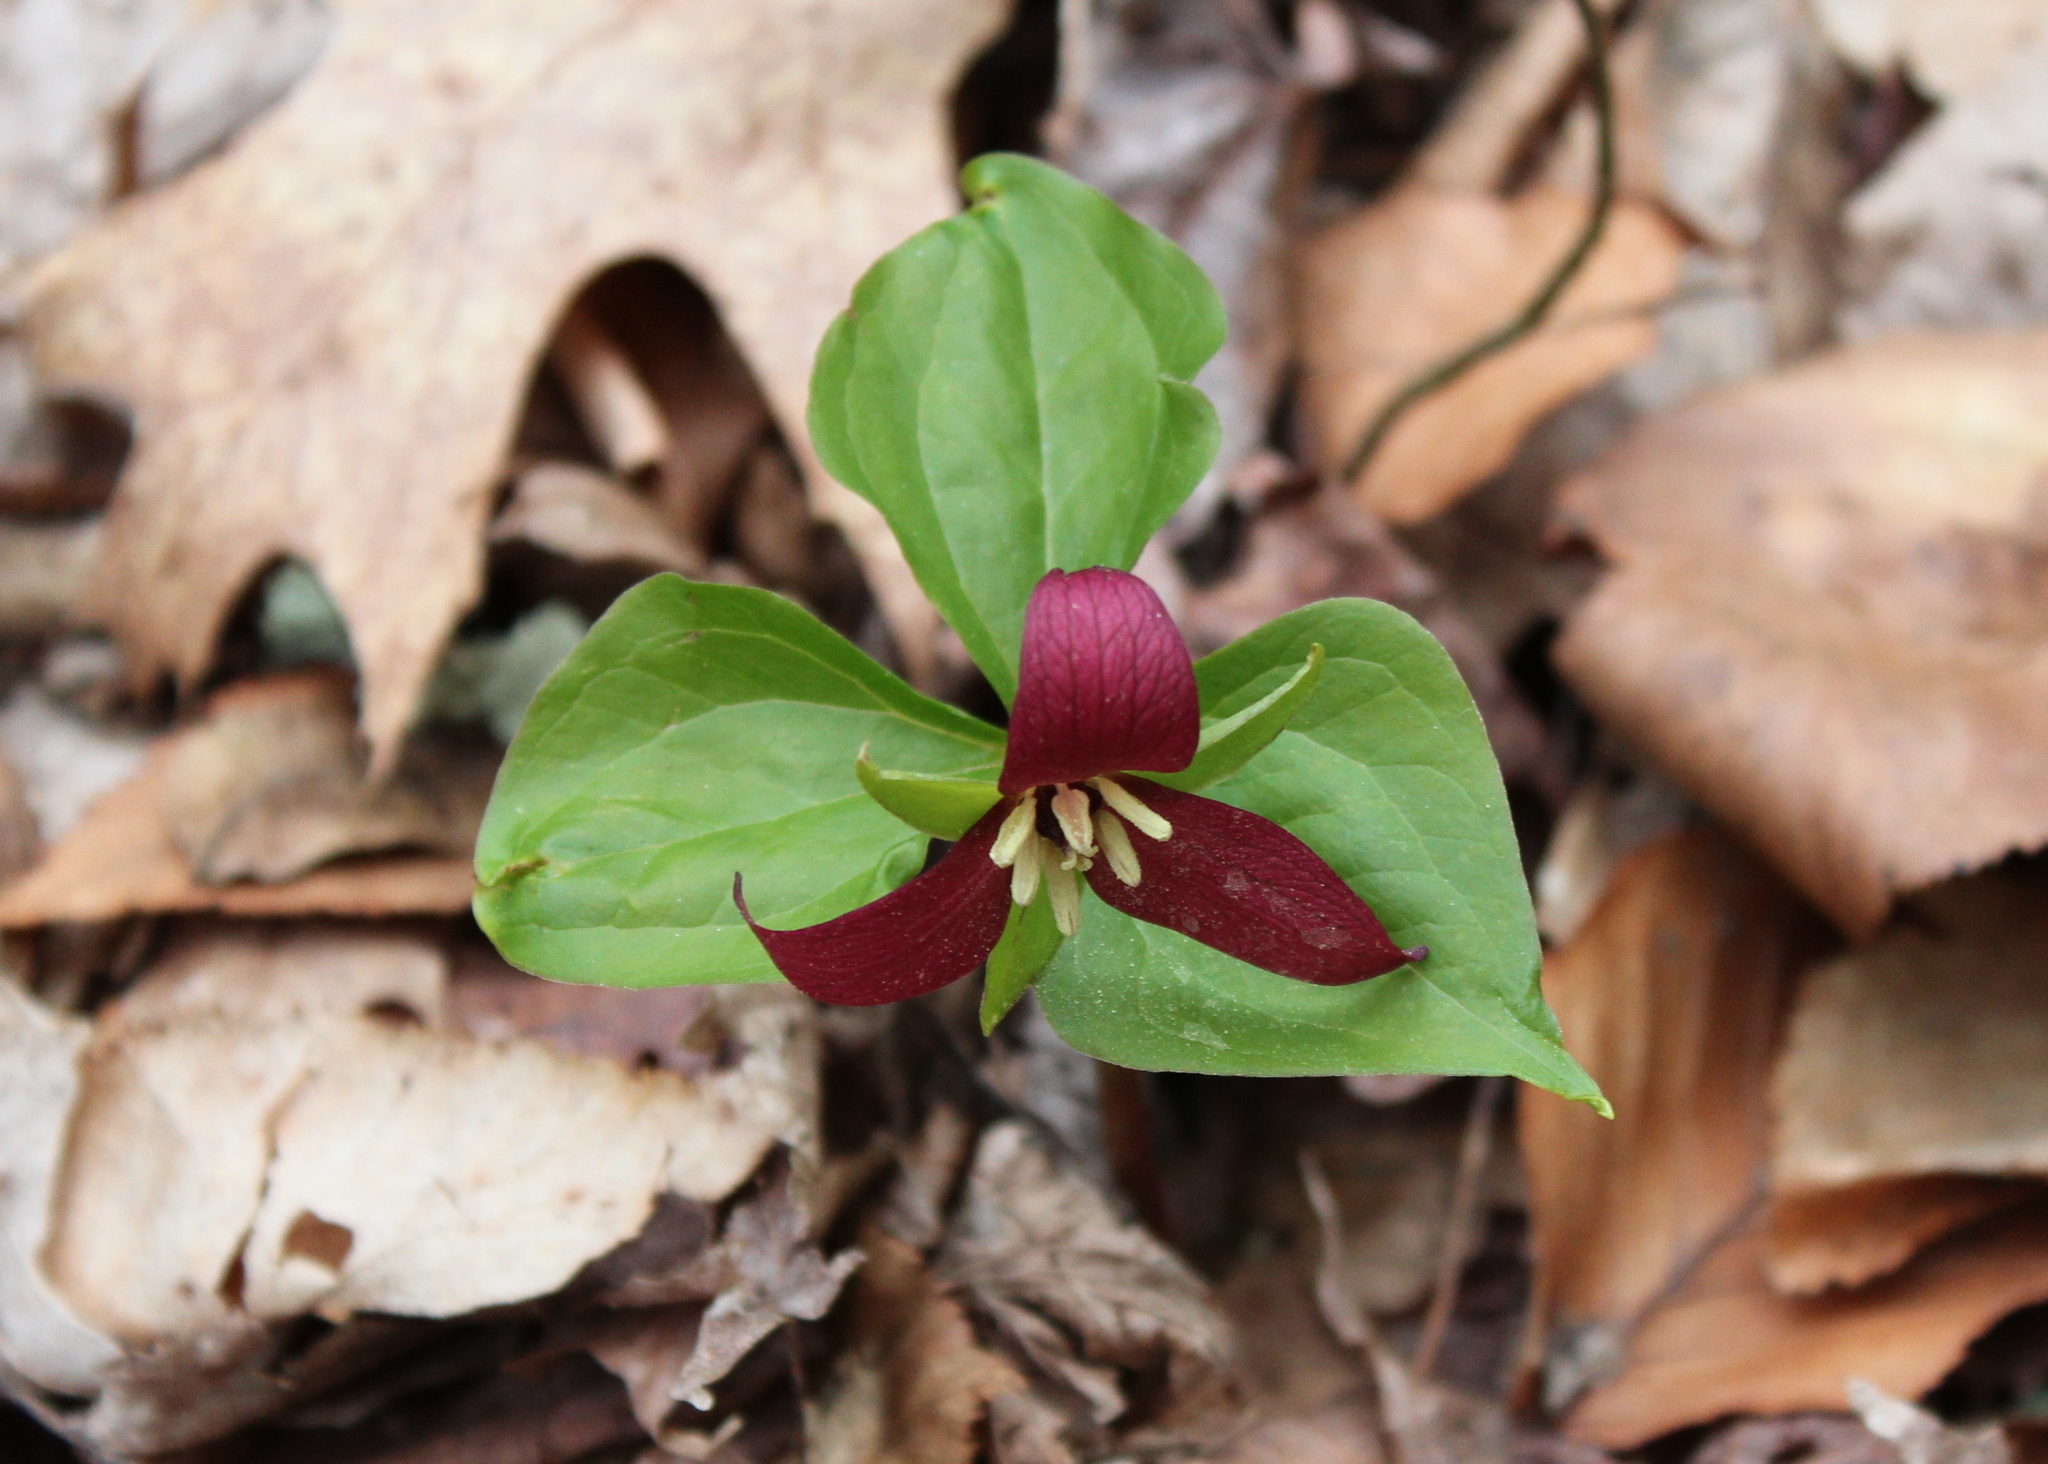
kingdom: Plantae
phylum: Tracheophyta
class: Liliopsida
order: Liliales
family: Melanthiaceae
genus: Trillium
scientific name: Trillium erectum
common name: Purple trillium
